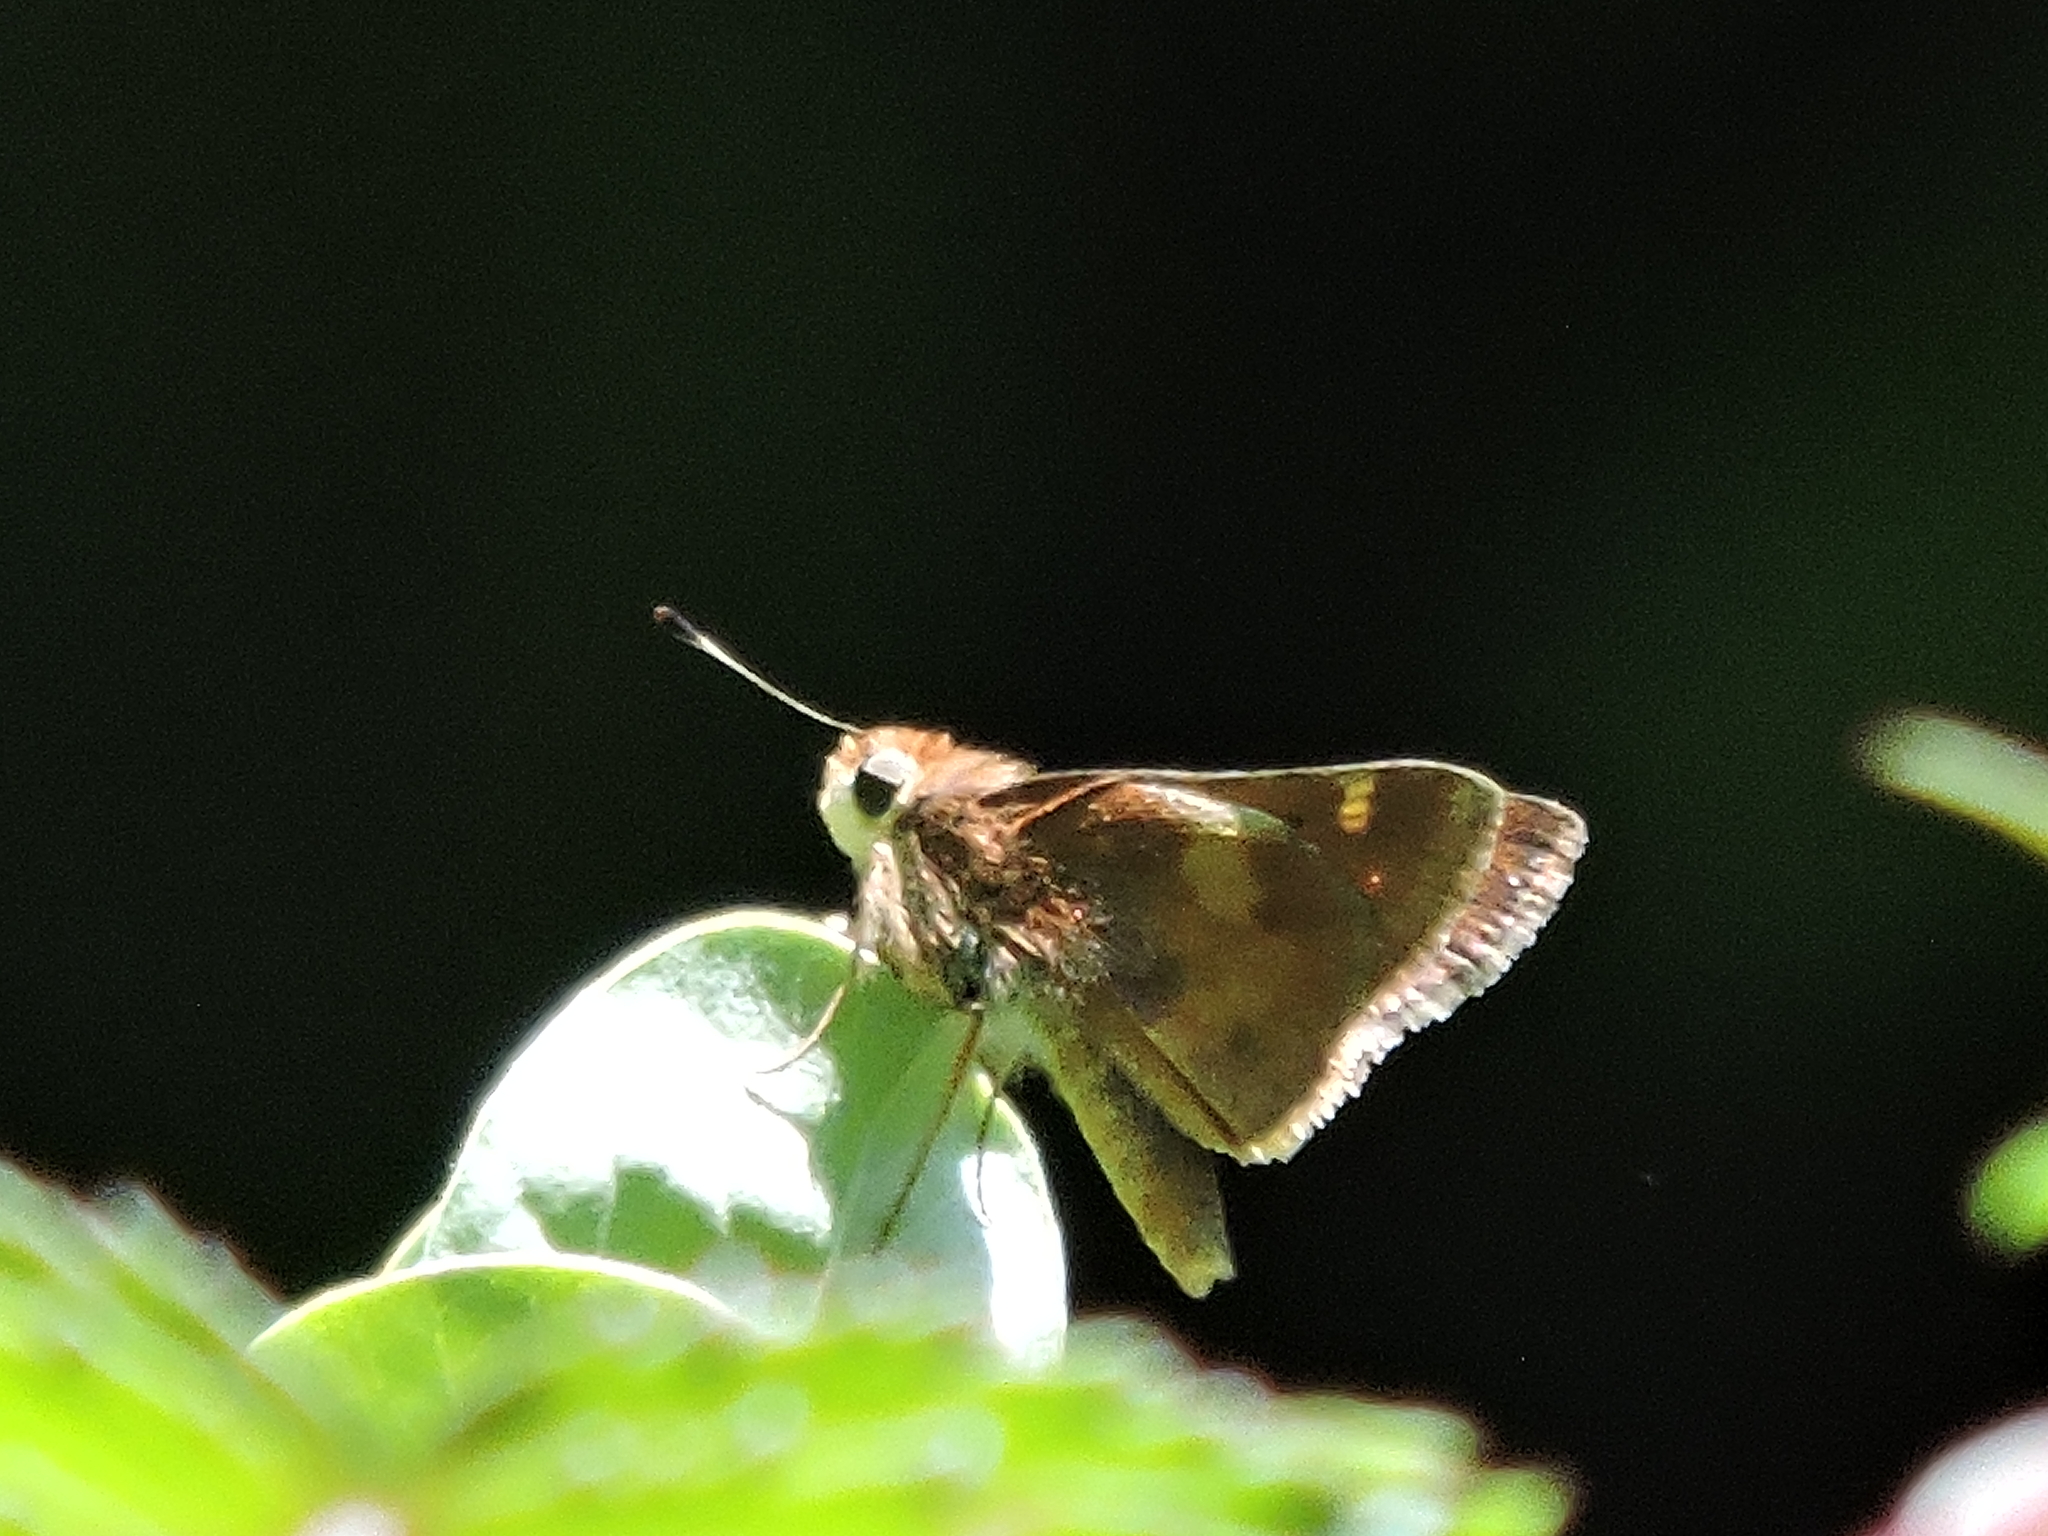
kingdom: Animalia
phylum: Arthropoda
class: Insecta
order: Lepidoptera
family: Hesperiidae
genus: Lon
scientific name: Lon melane
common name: Umber skipper
